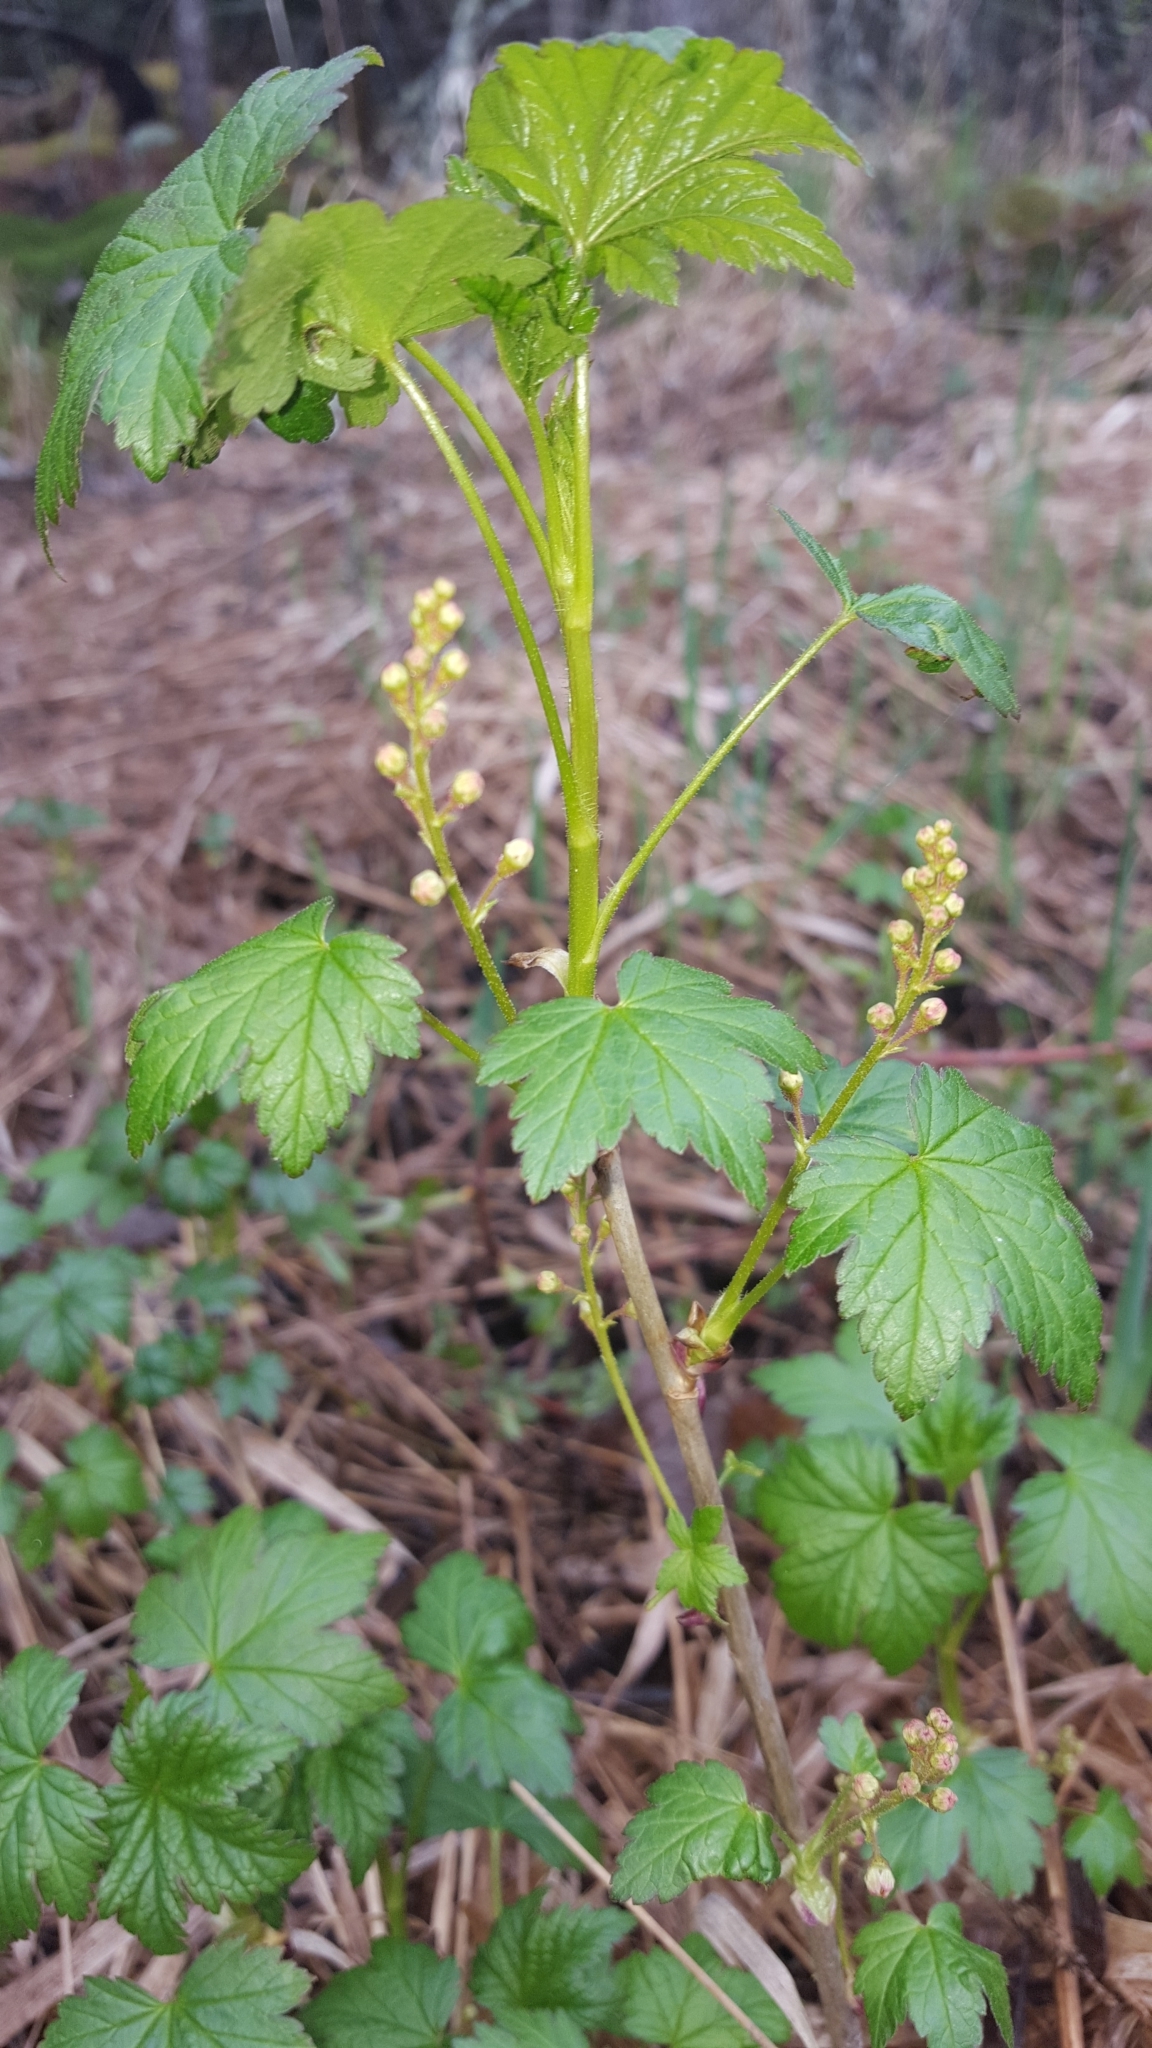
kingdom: Plantae
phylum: Tracheophyta
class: Magnoliopsida
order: Saxifragales
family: Grossulariaceae
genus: Ribes
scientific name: Ribes glandulosum
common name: Skunk currant
